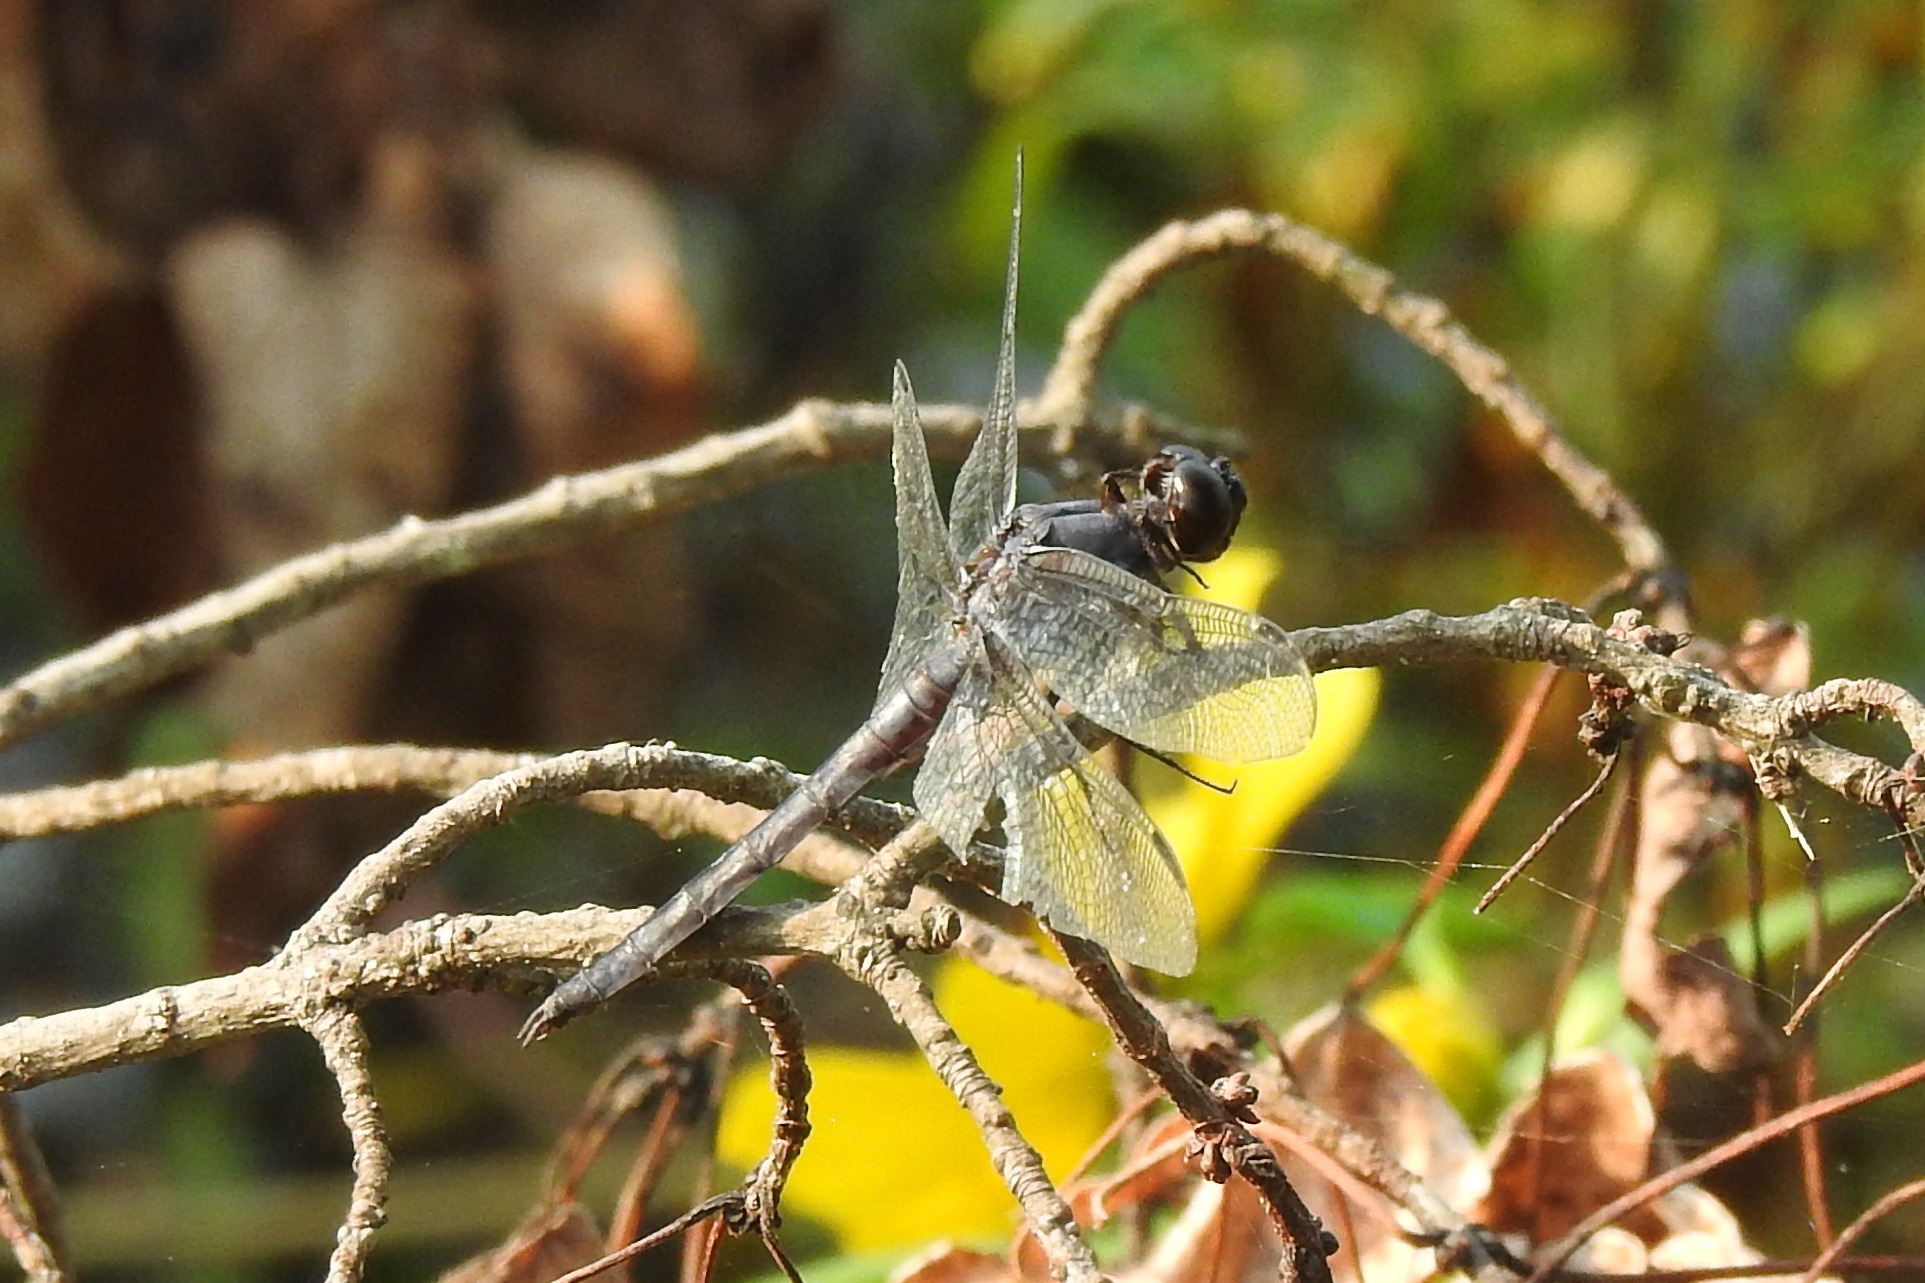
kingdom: Animalia
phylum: Arthropoda
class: Insecta
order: Odonata
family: Libellulidae
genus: Libellula
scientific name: Libellula incesta
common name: Slaty skimmer
